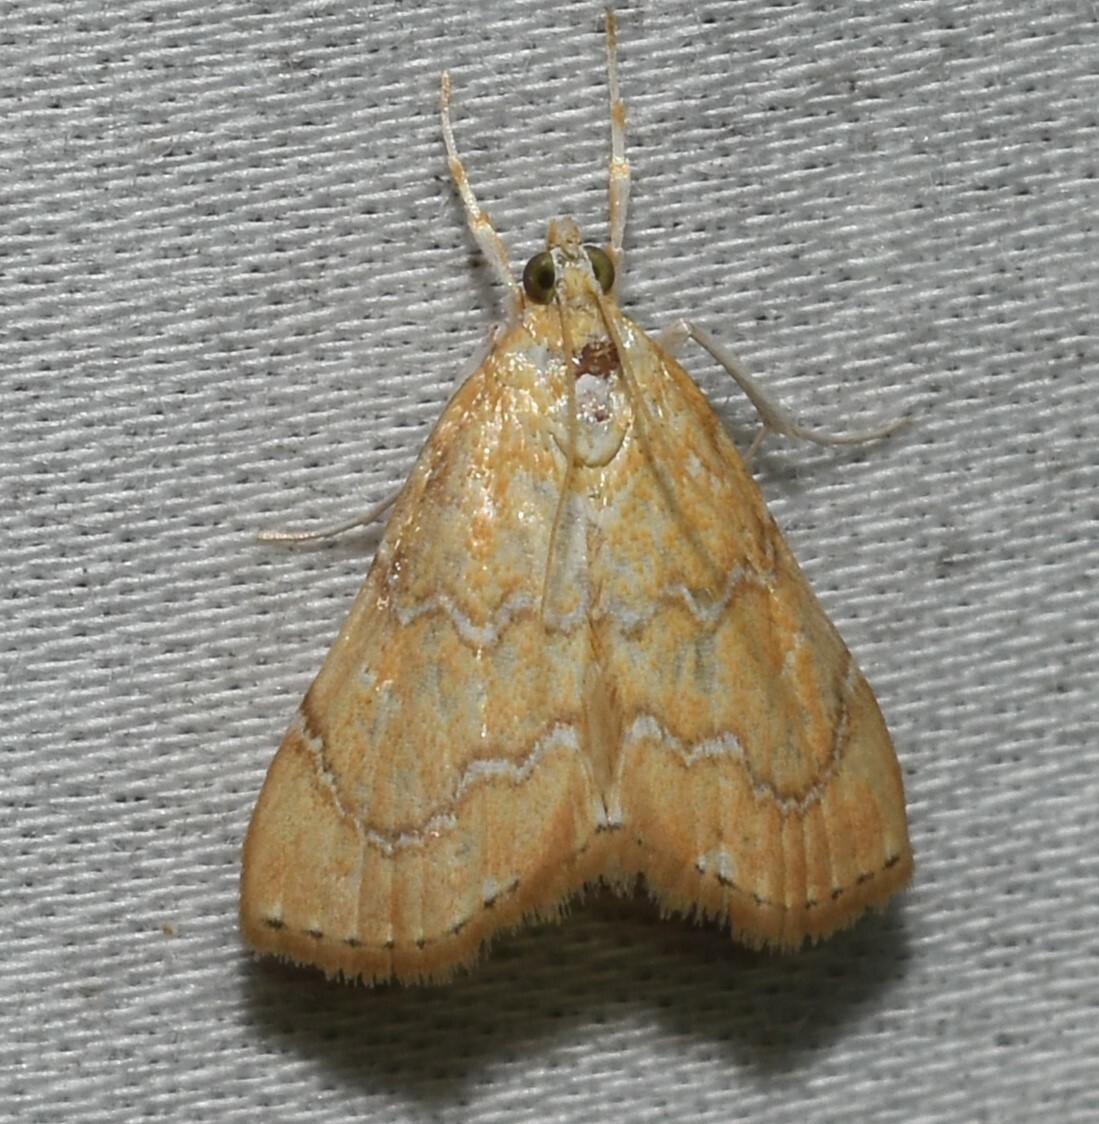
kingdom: Animalia
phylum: Arthropoda
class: Insecta
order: Lepidoptera
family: Crambidae
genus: Glaphyria
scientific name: Glaphyria sesquistrialis
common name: White-roped glaphyria
